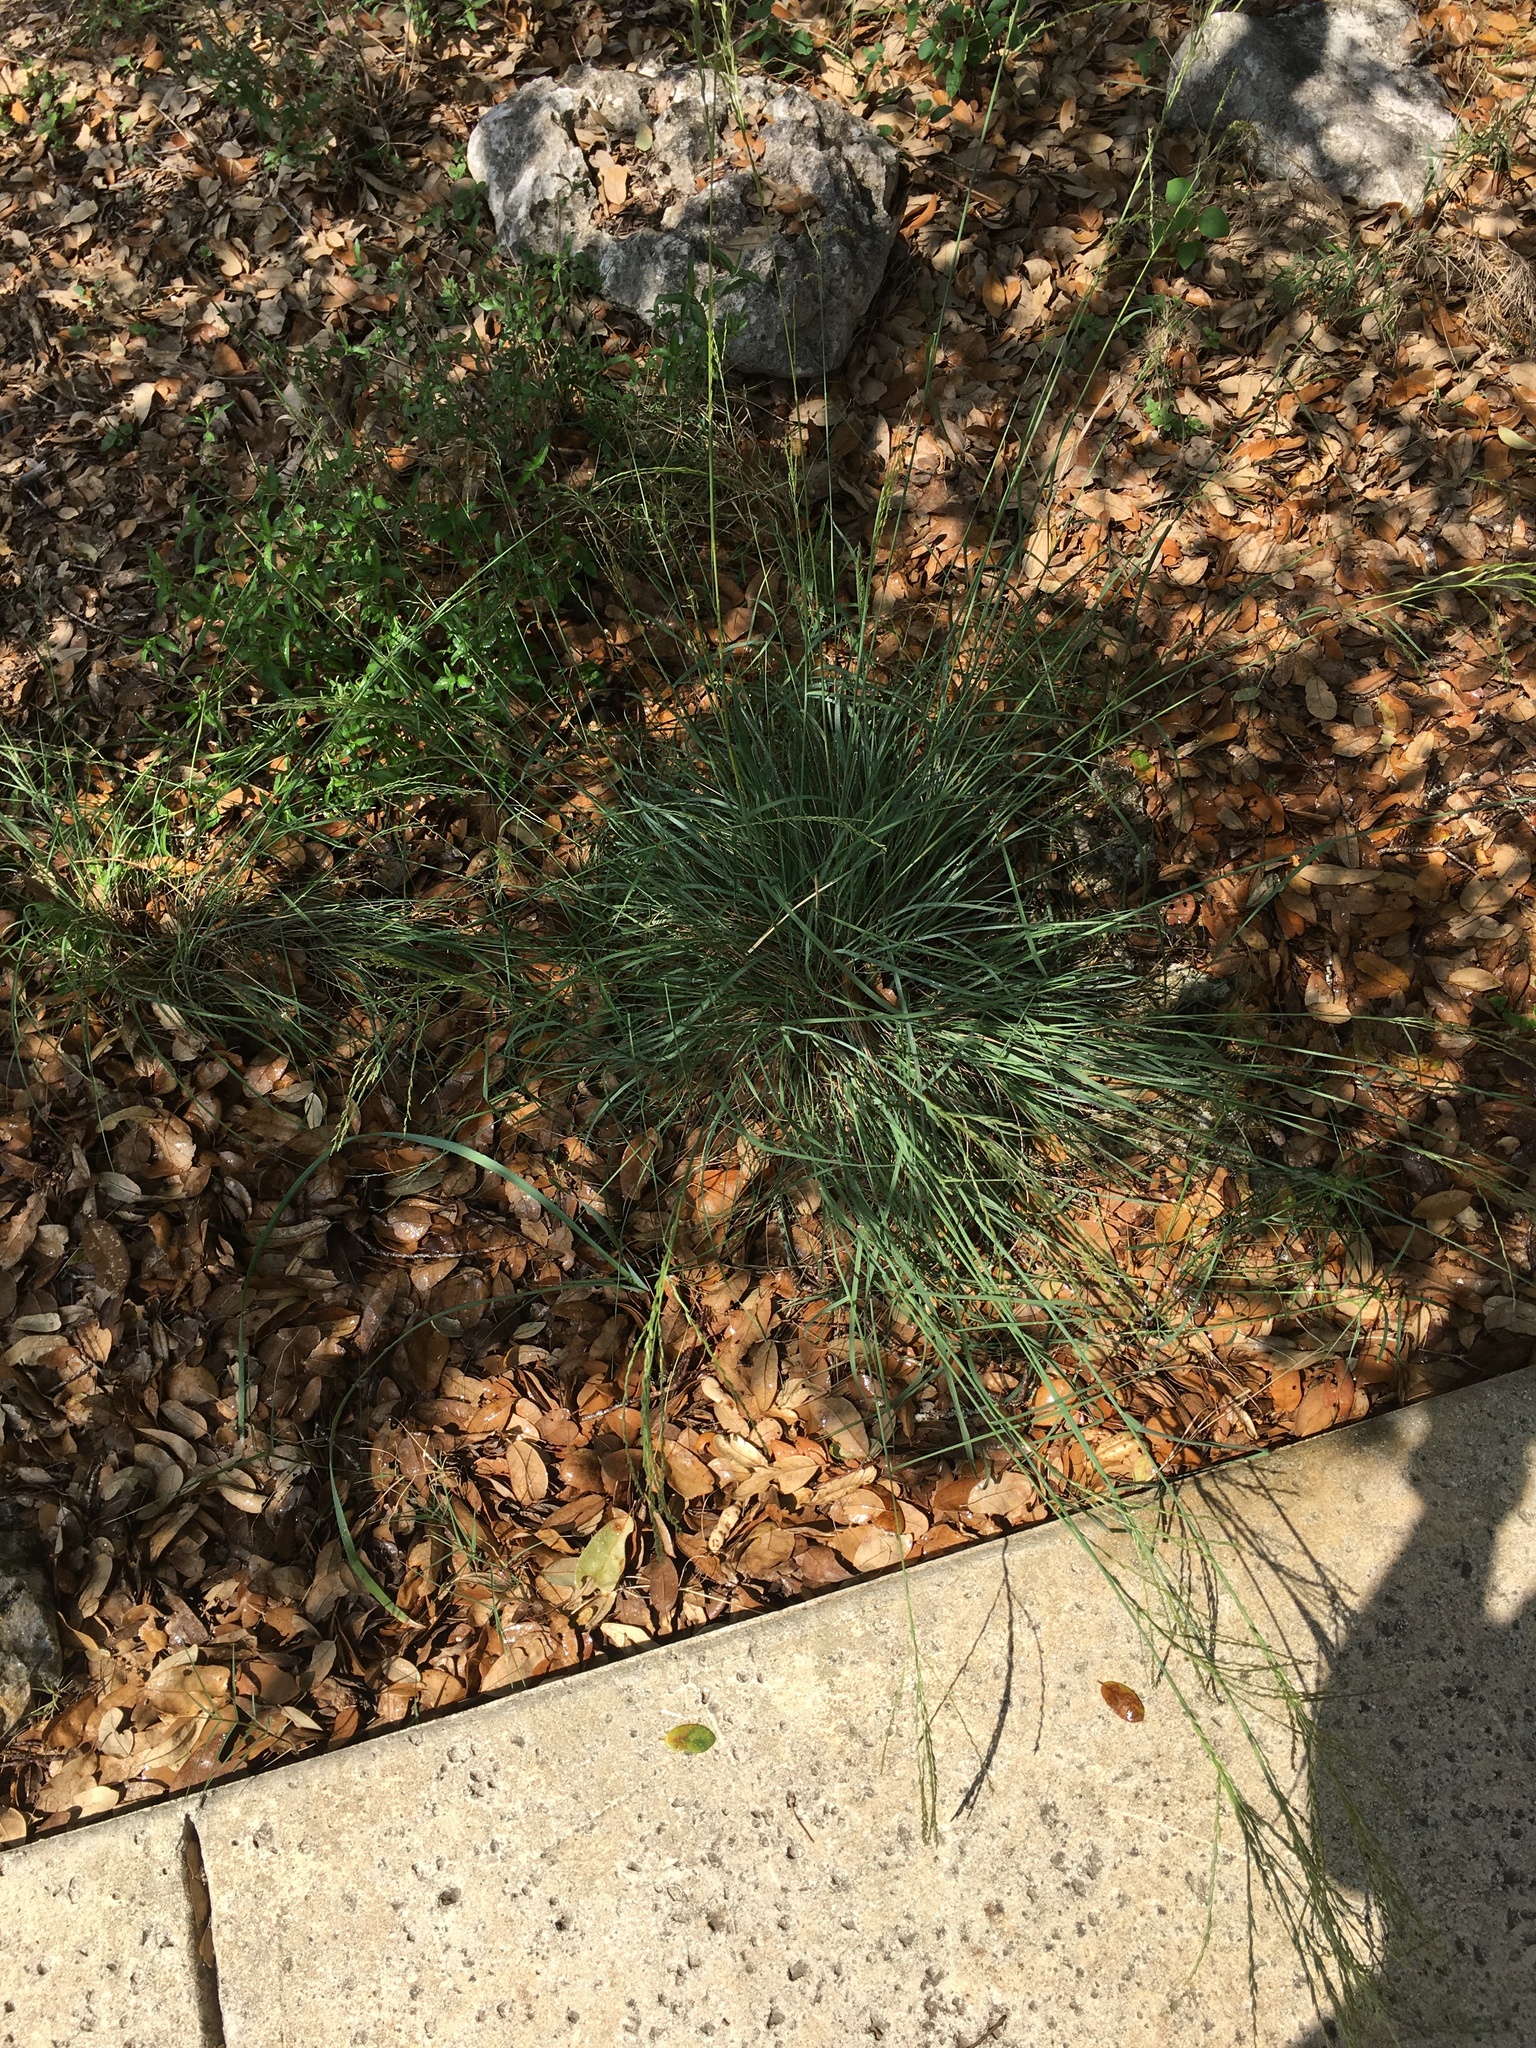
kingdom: Plantae
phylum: Tracheophyta
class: Liliopsida
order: Poales
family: Poaceae
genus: Disakisperma
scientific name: Disakisperma dubium
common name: Green sprangletop
